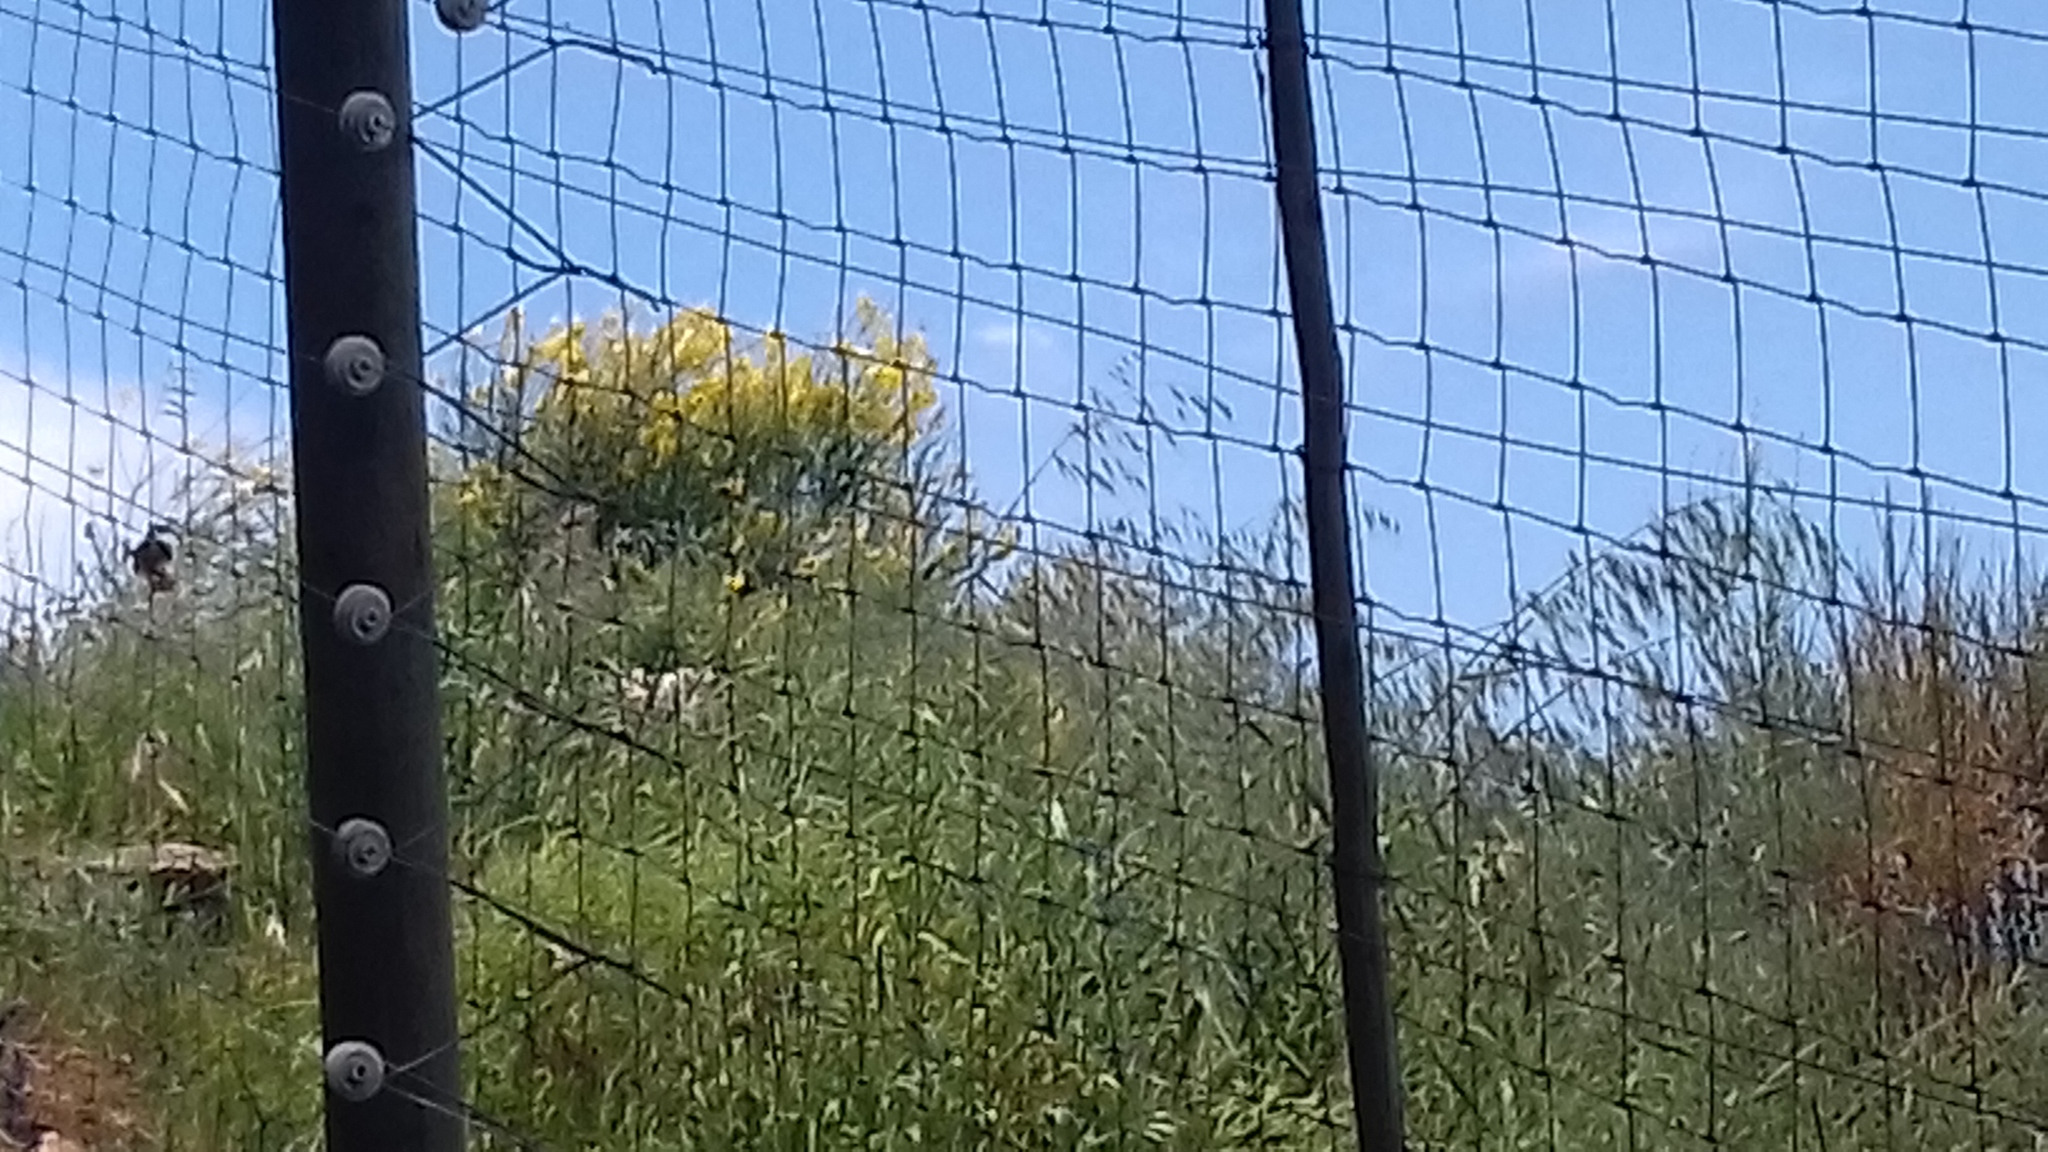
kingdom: Plantae
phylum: Tracheophyta
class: Magnoliopsida
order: Fabales
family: Fabaceae
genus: Spartium
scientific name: Spartium junceum
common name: Spanish broom
